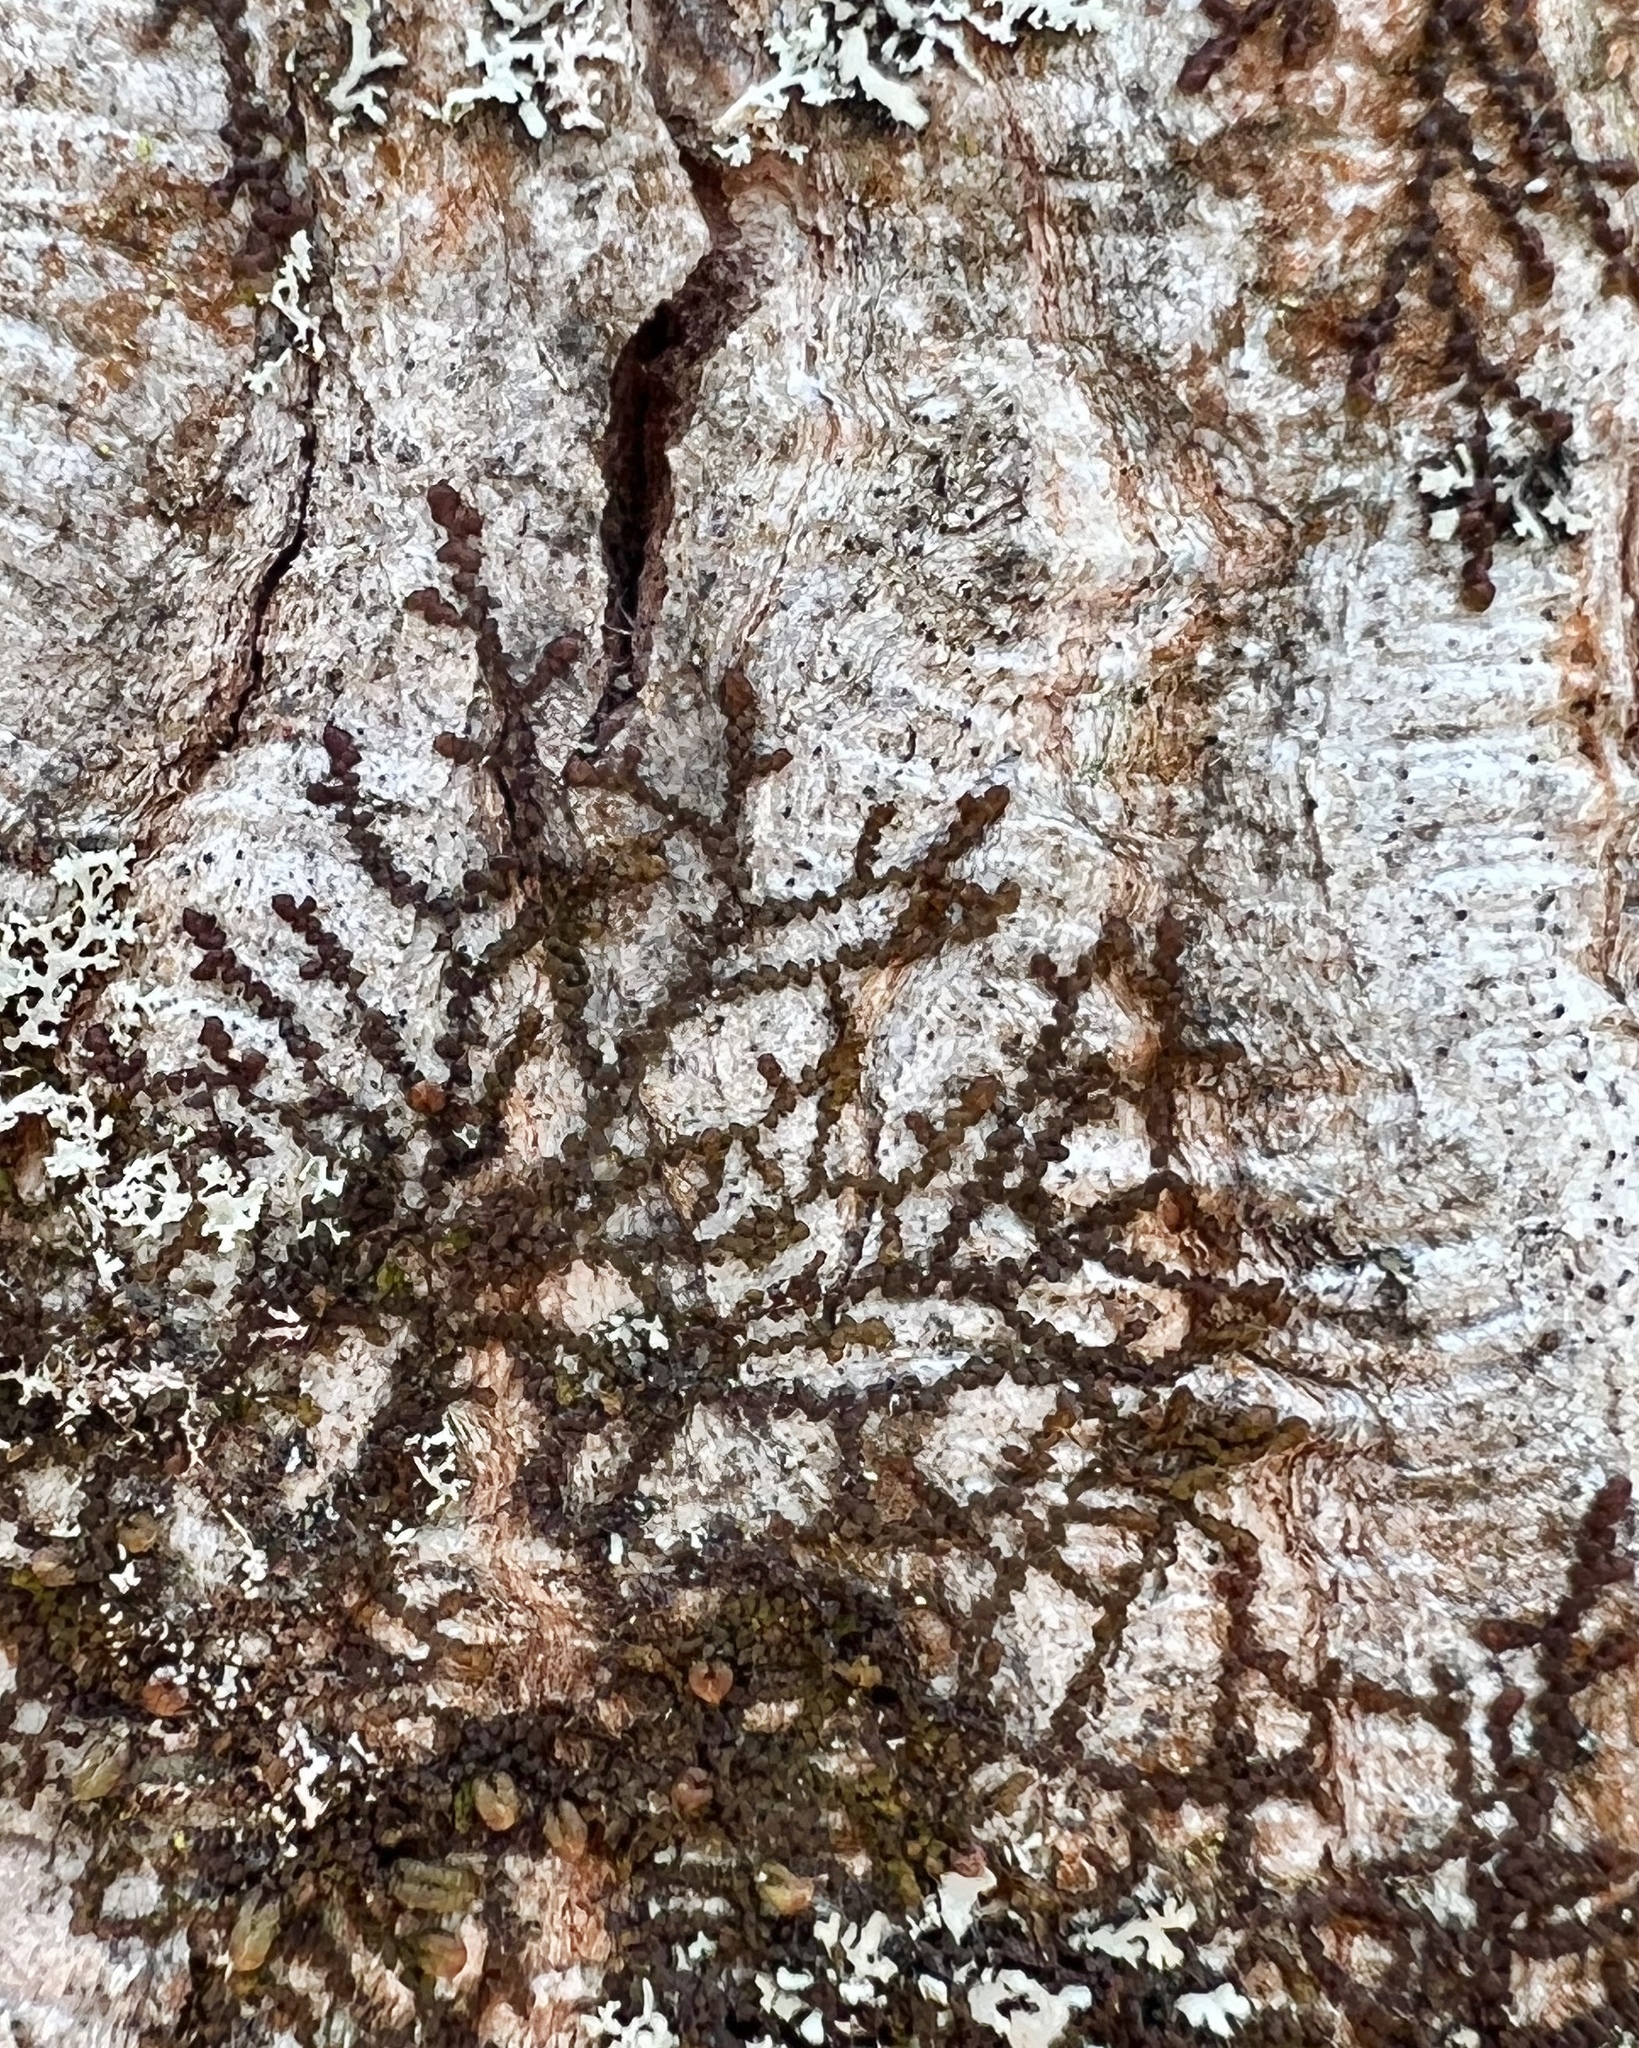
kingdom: Plantae
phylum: Marchantiophyta
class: Jungermanniopsida
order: Porellales
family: Frullaniaceae
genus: Frullania
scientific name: Frullania eboracensis
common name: New york scalewort
